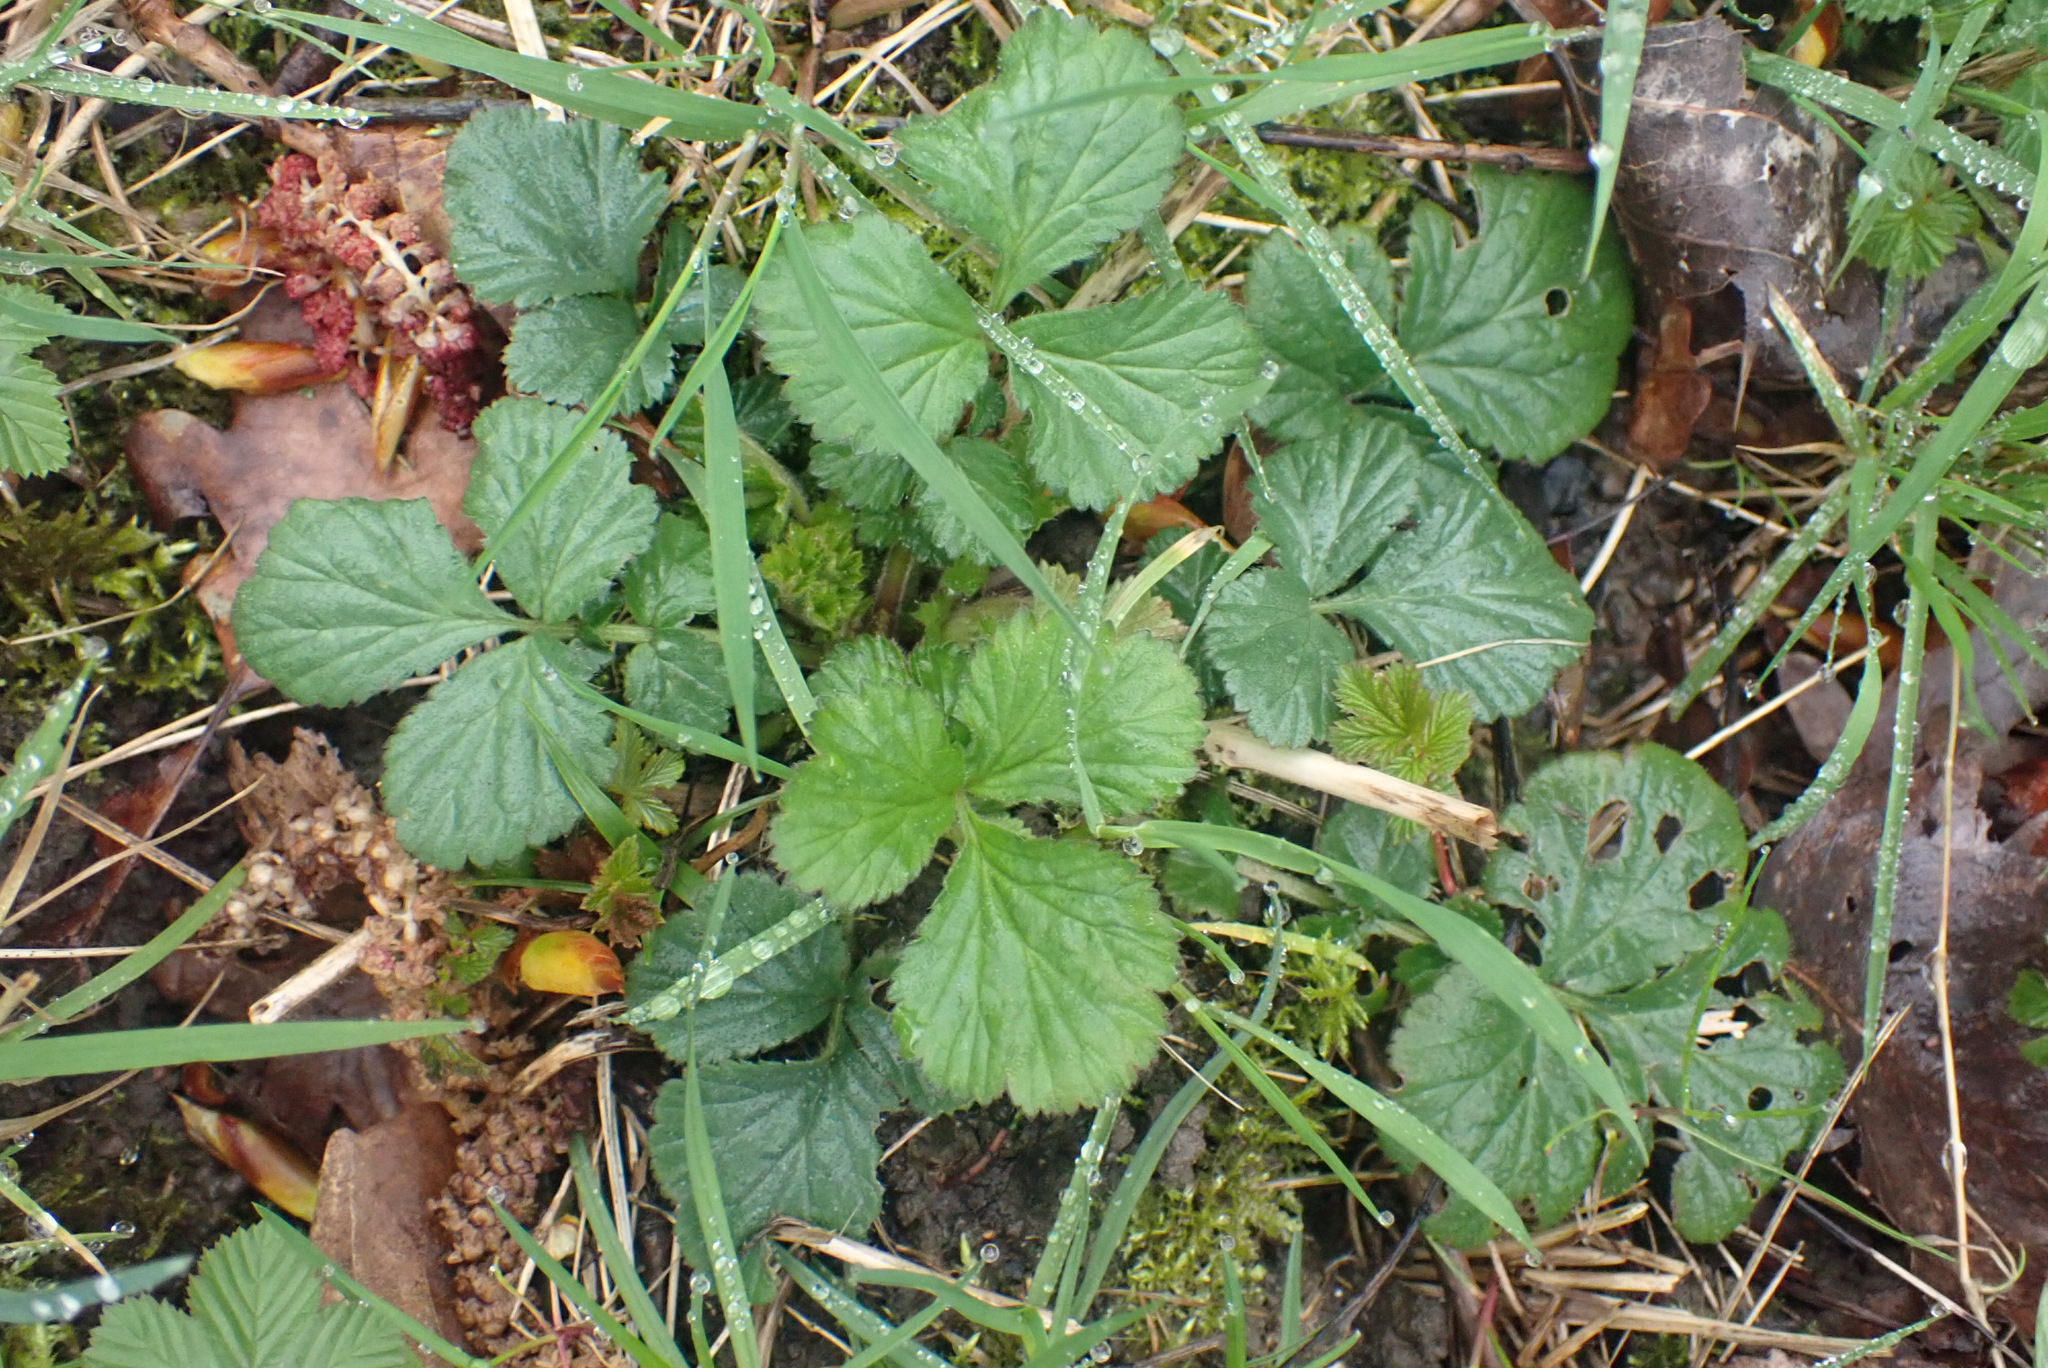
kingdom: Plantae
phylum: Tracheophyta
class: Magnoliopsida
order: Rosales
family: Rosaceae
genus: Geum
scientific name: Geum urbanum
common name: Wood avens
